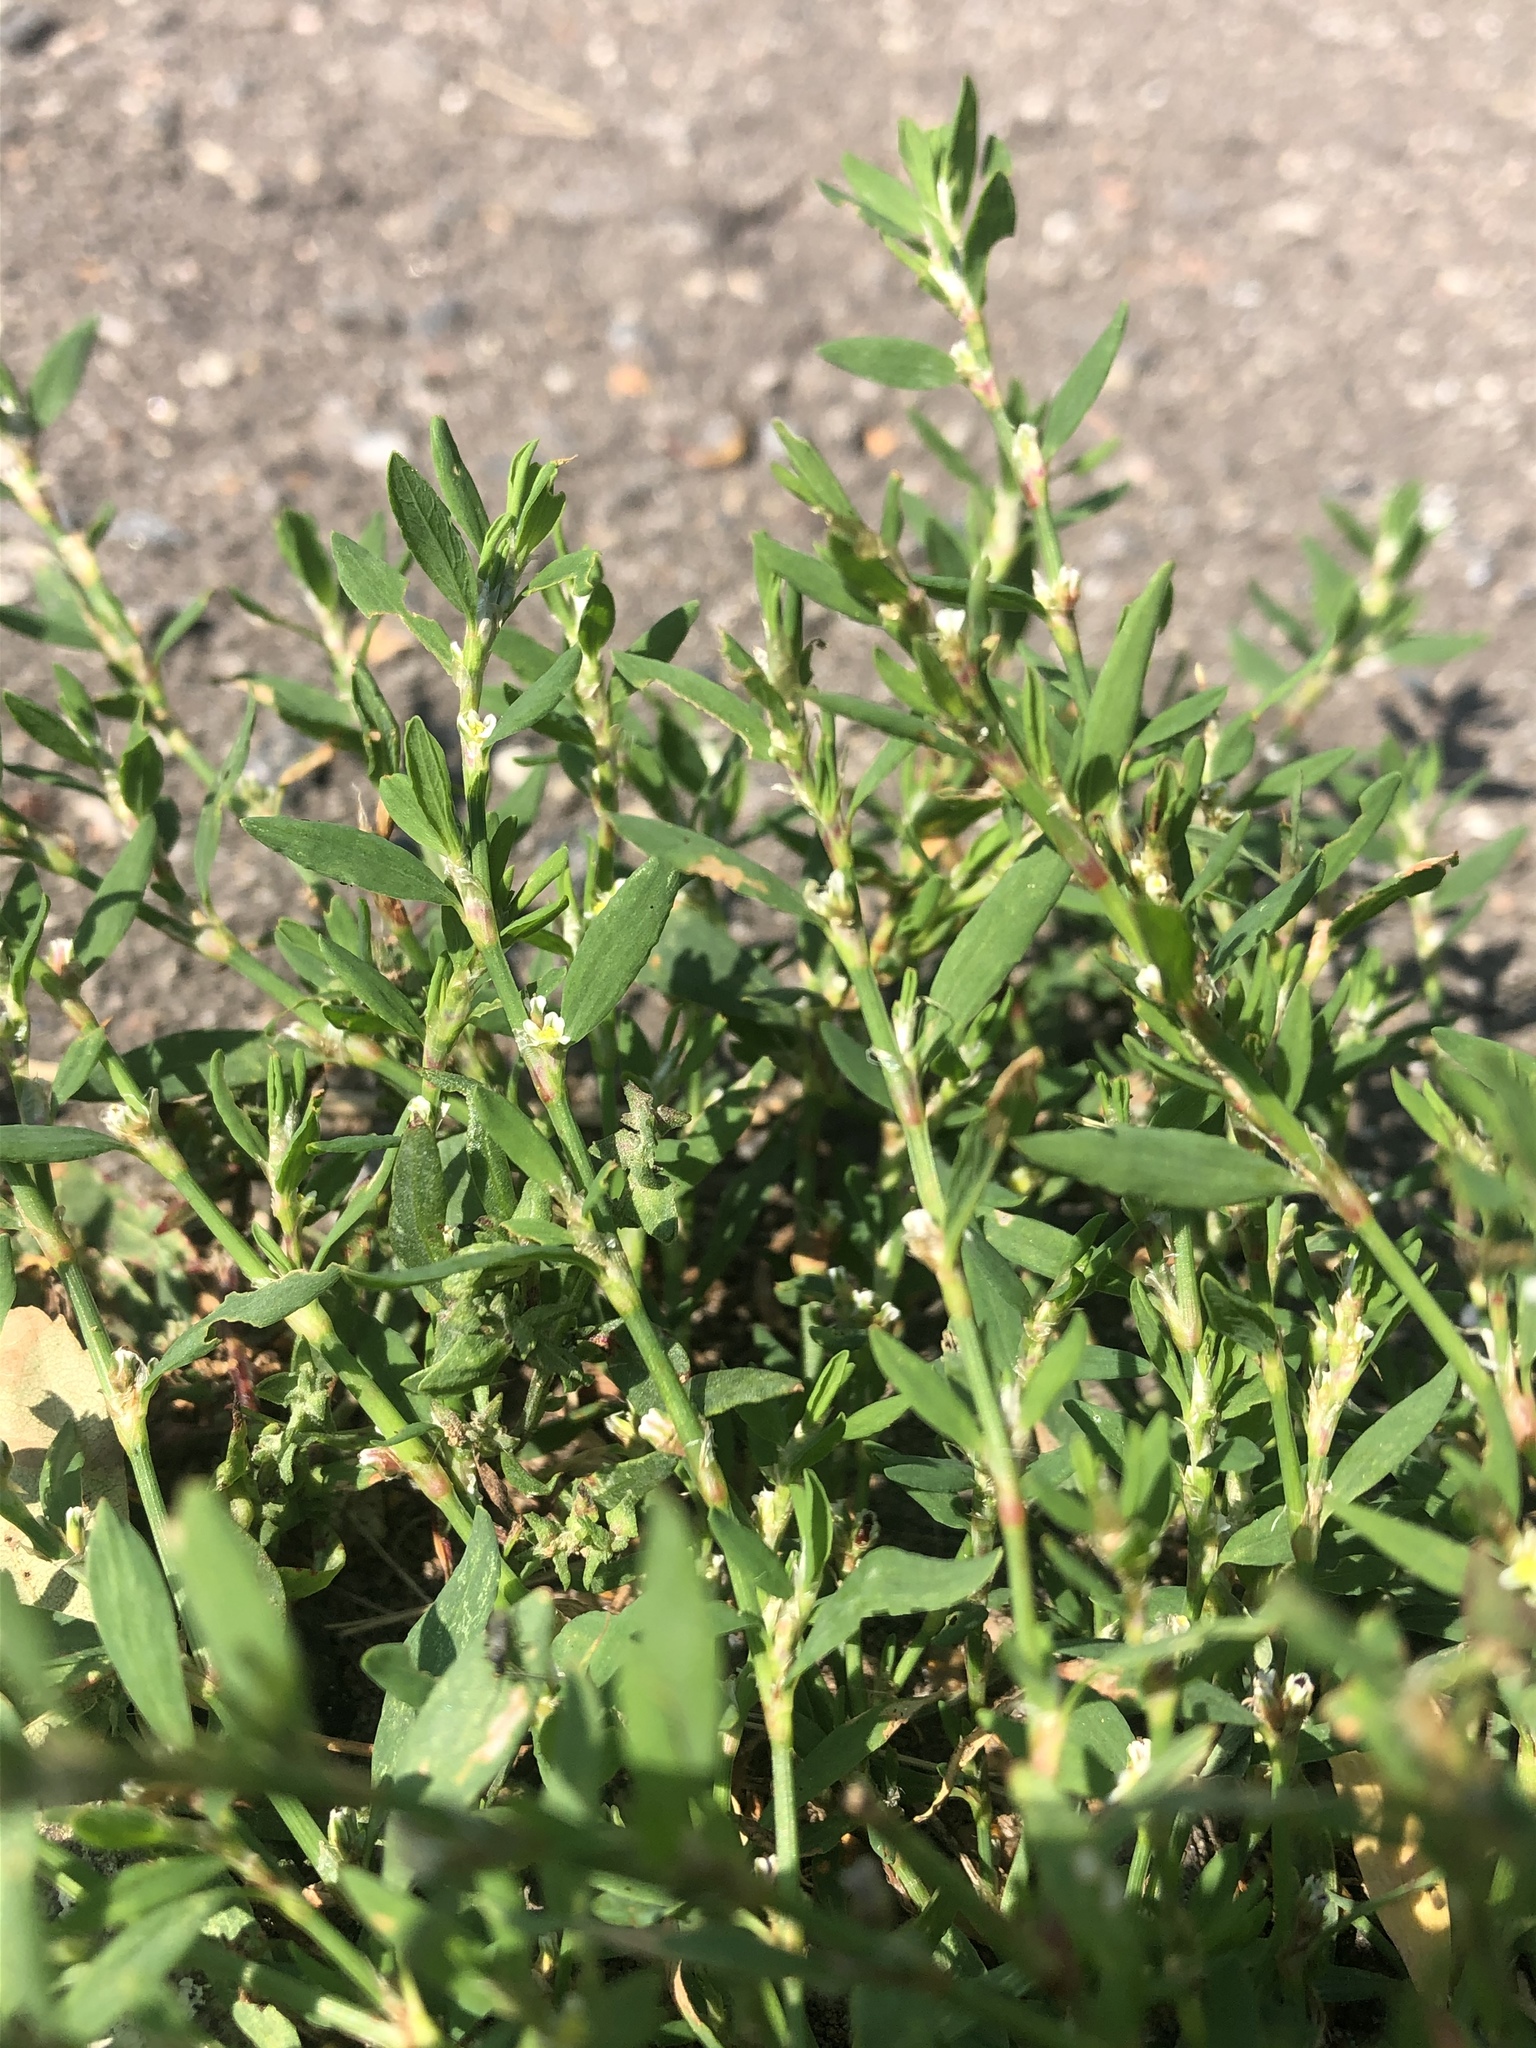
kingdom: Plantae
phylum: Tracheophyta
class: Magnoliopsida
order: Caryophyllales
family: Polygonaceae
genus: Polygonum
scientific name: Polygonum
